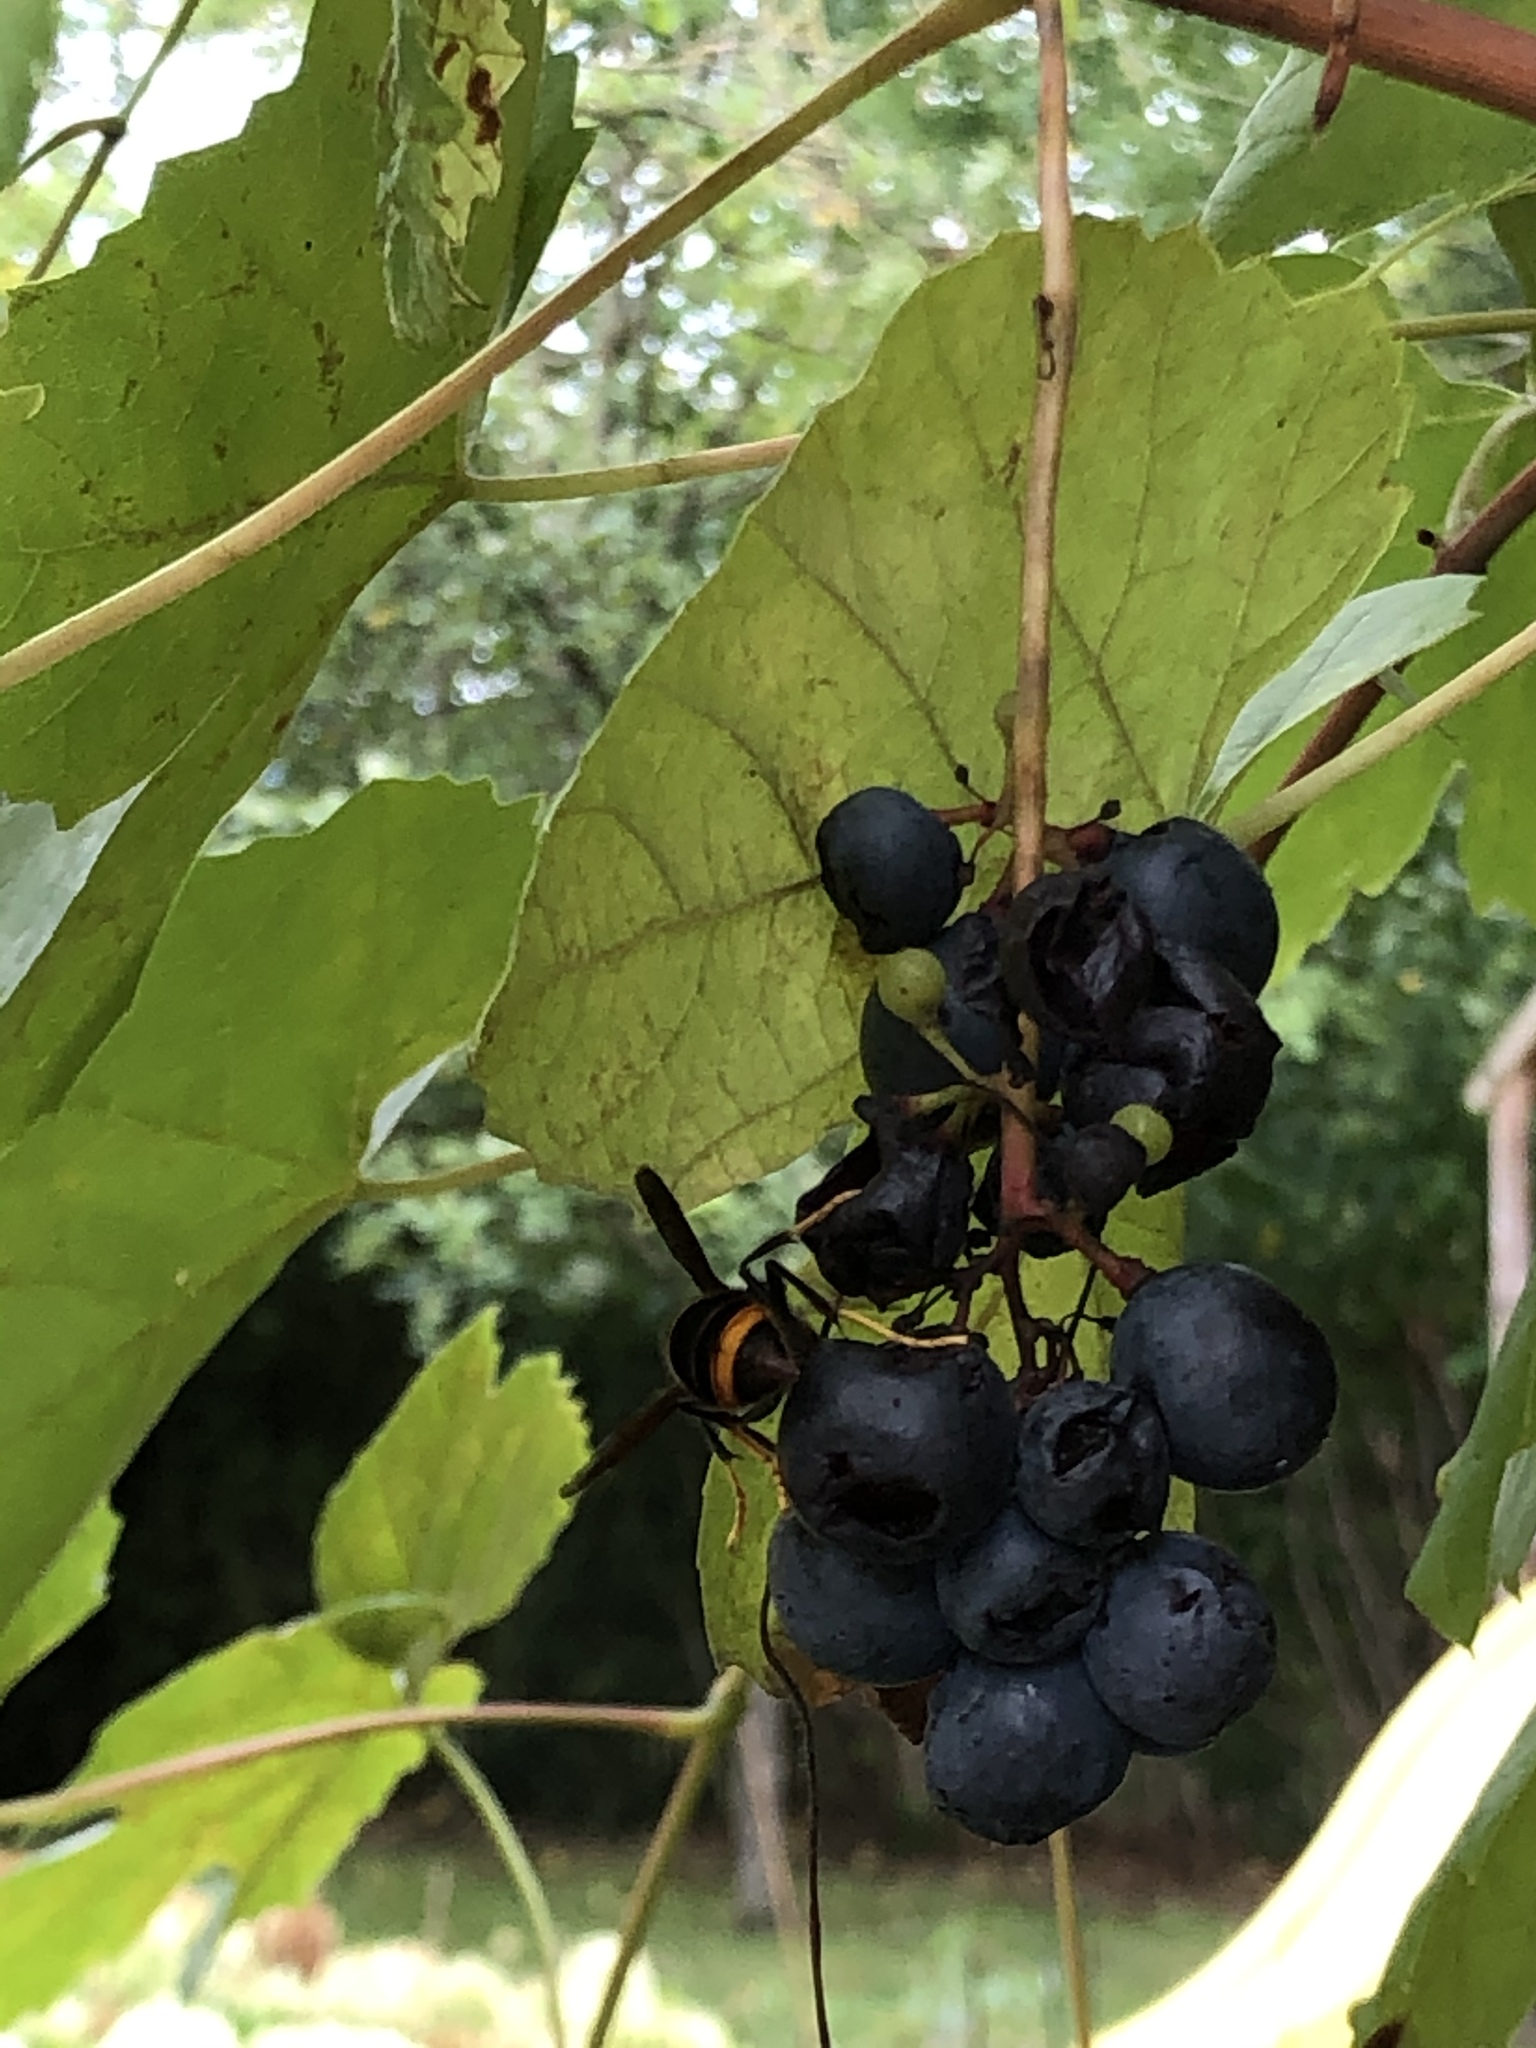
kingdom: Animalia
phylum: Arthropoda
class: Insecta
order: Hymenoptera
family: Vespidae
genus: Vespa
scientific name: Vespa velutina
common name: Asian hornet
